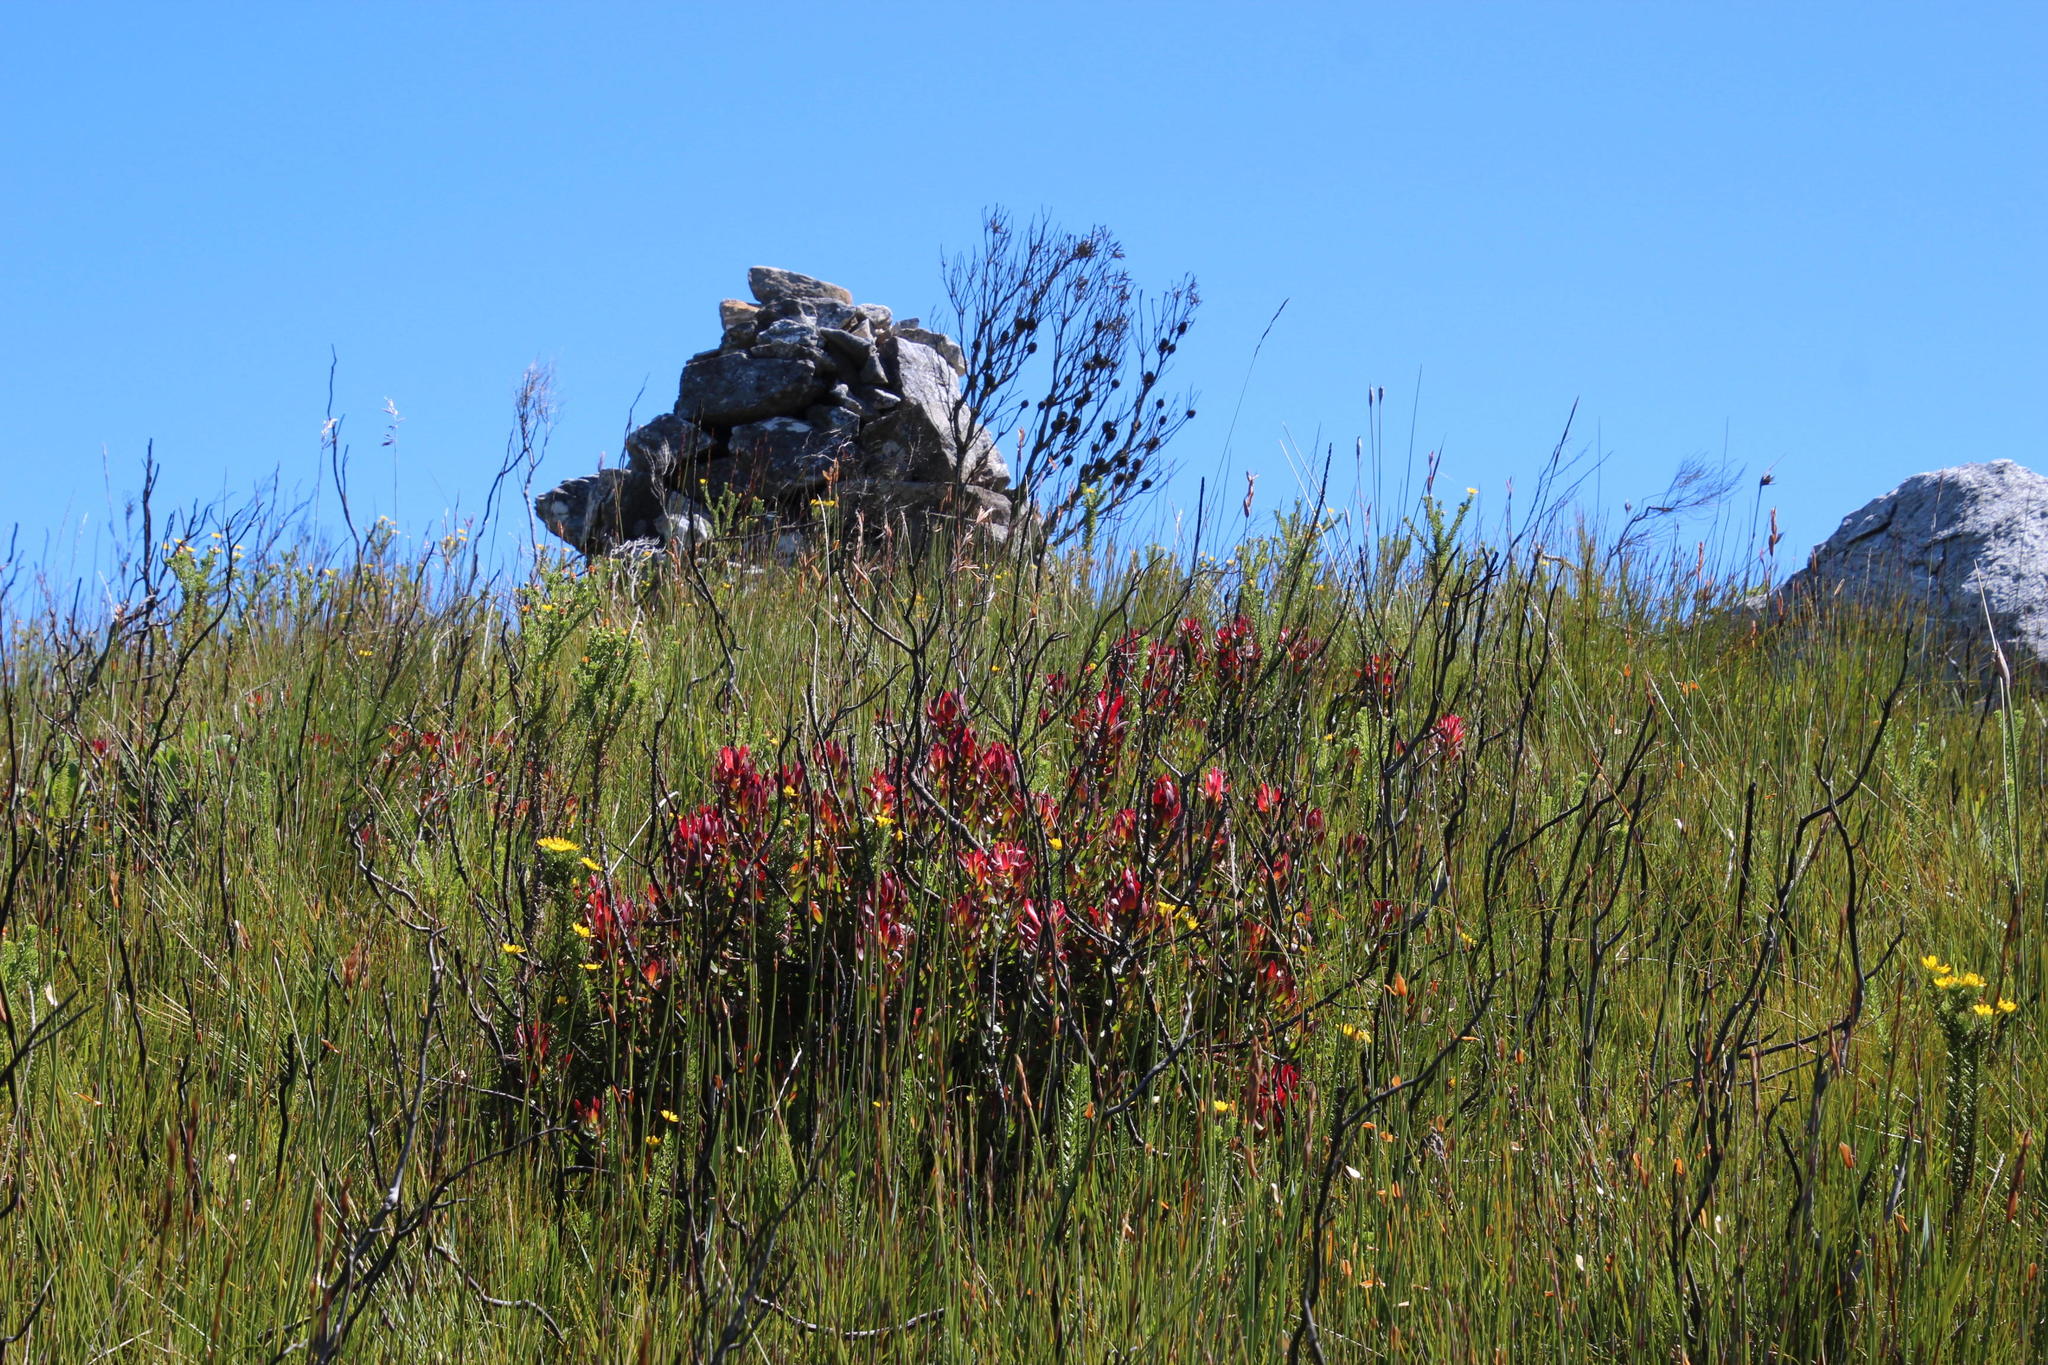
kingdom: Plantae
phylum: Tracheophyta
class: Magnoliopsida
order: Proteales
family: Proteaceae
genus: Mimetes
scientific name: Mimetes cucullatus
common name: Common pagoda
